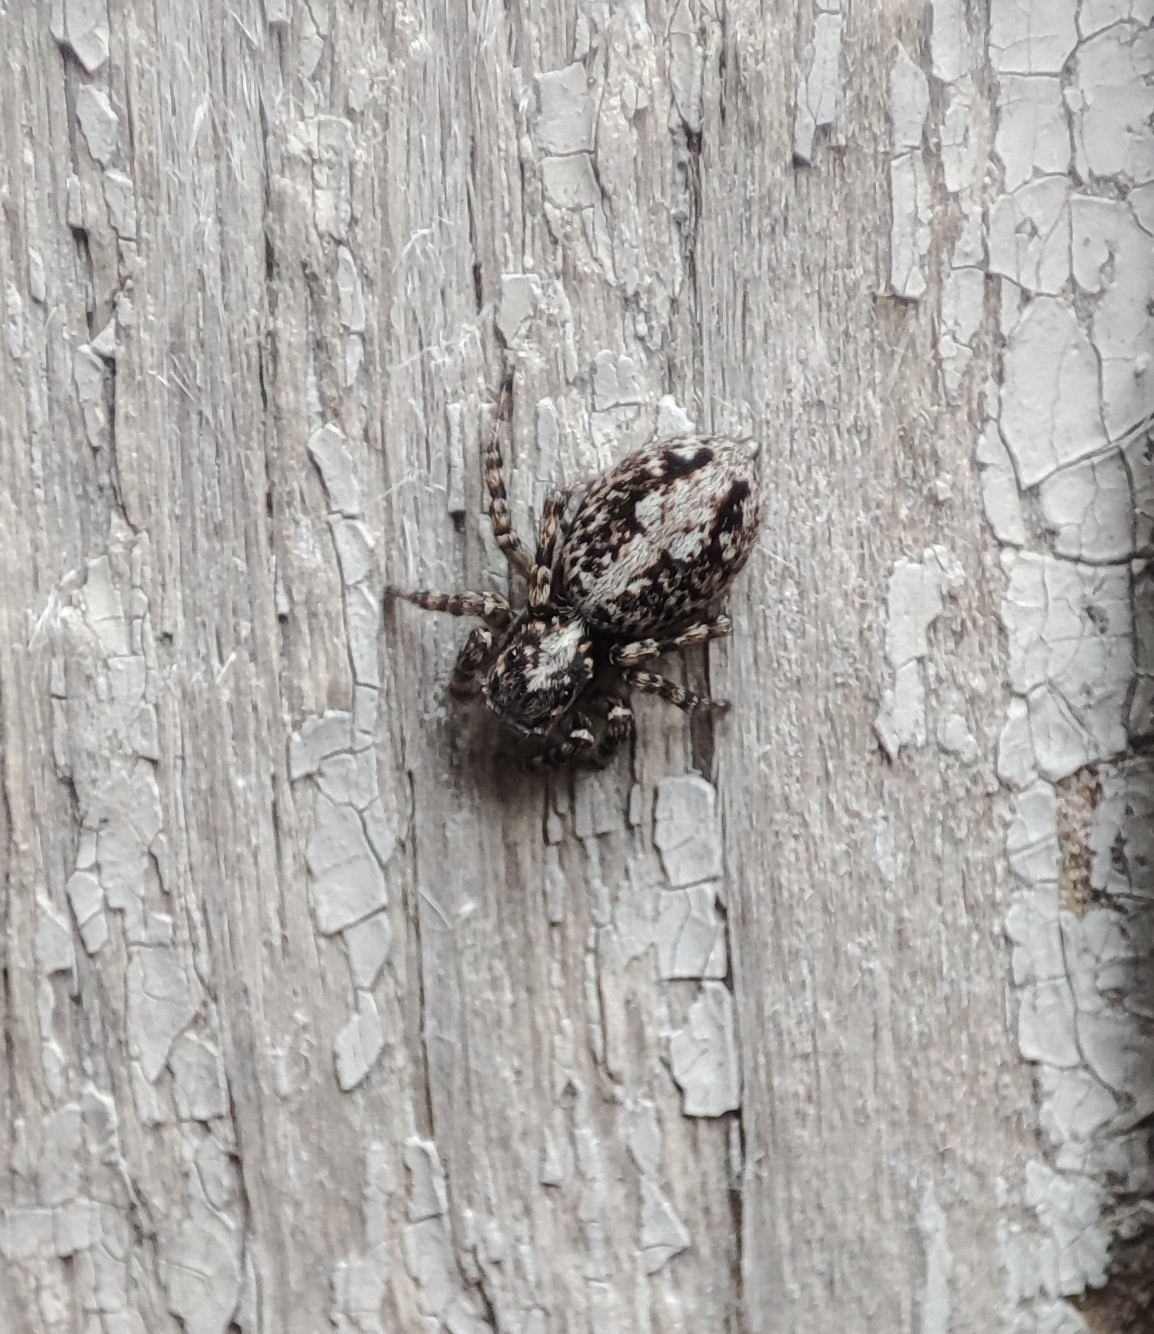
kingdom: Animalia
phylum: Arthropoda
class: Arachnida
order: Araneae
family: Salticidae
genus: Attulus
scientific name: Attulus terebratus
